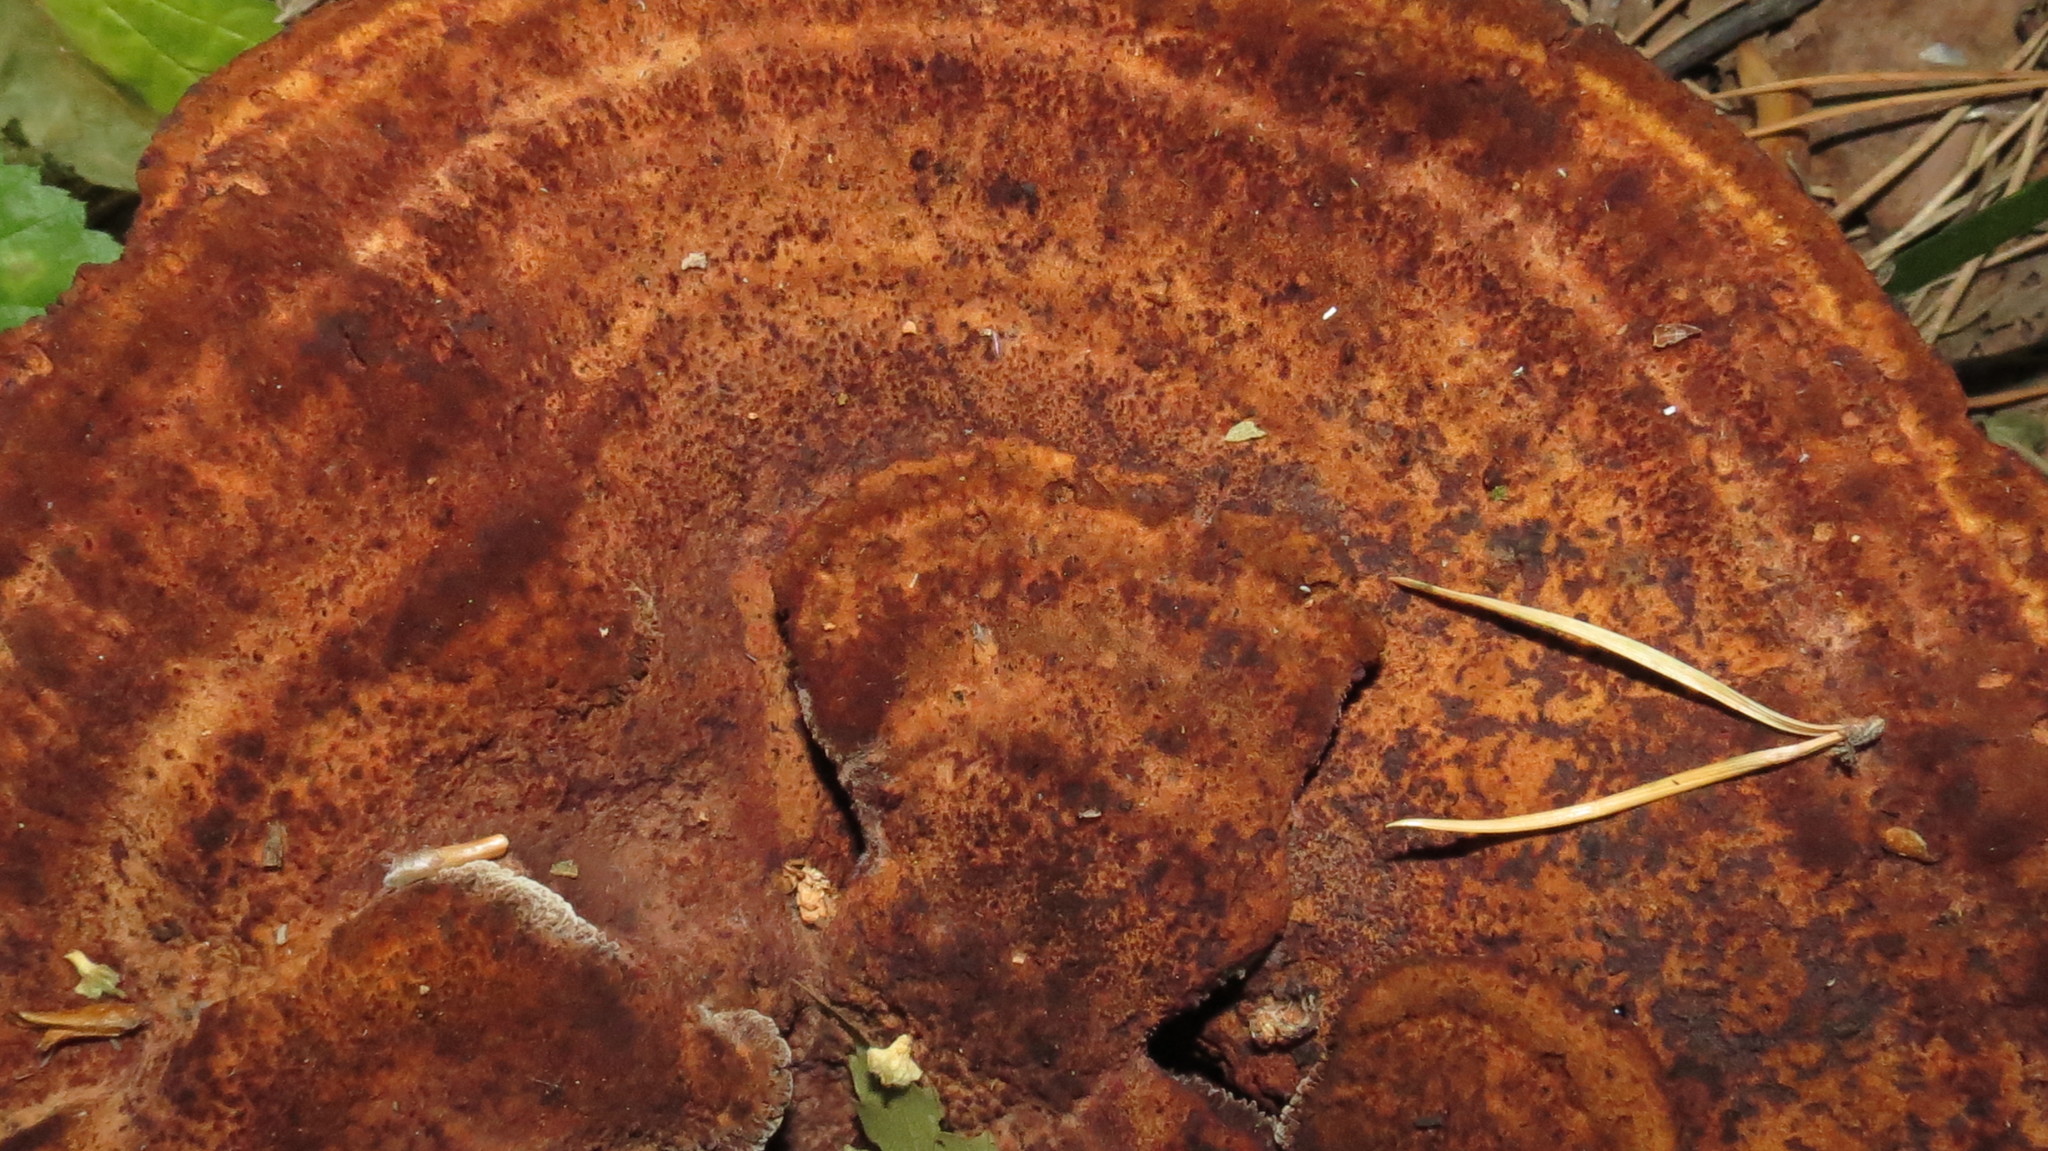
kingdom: Fungi
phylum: Basidiomycota
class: Agaricomycetes
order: Polyporales
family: Laetiporaceae
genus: Phaeolus
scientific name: Phaeolus schweinitzii
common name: Dyer's mazegill
